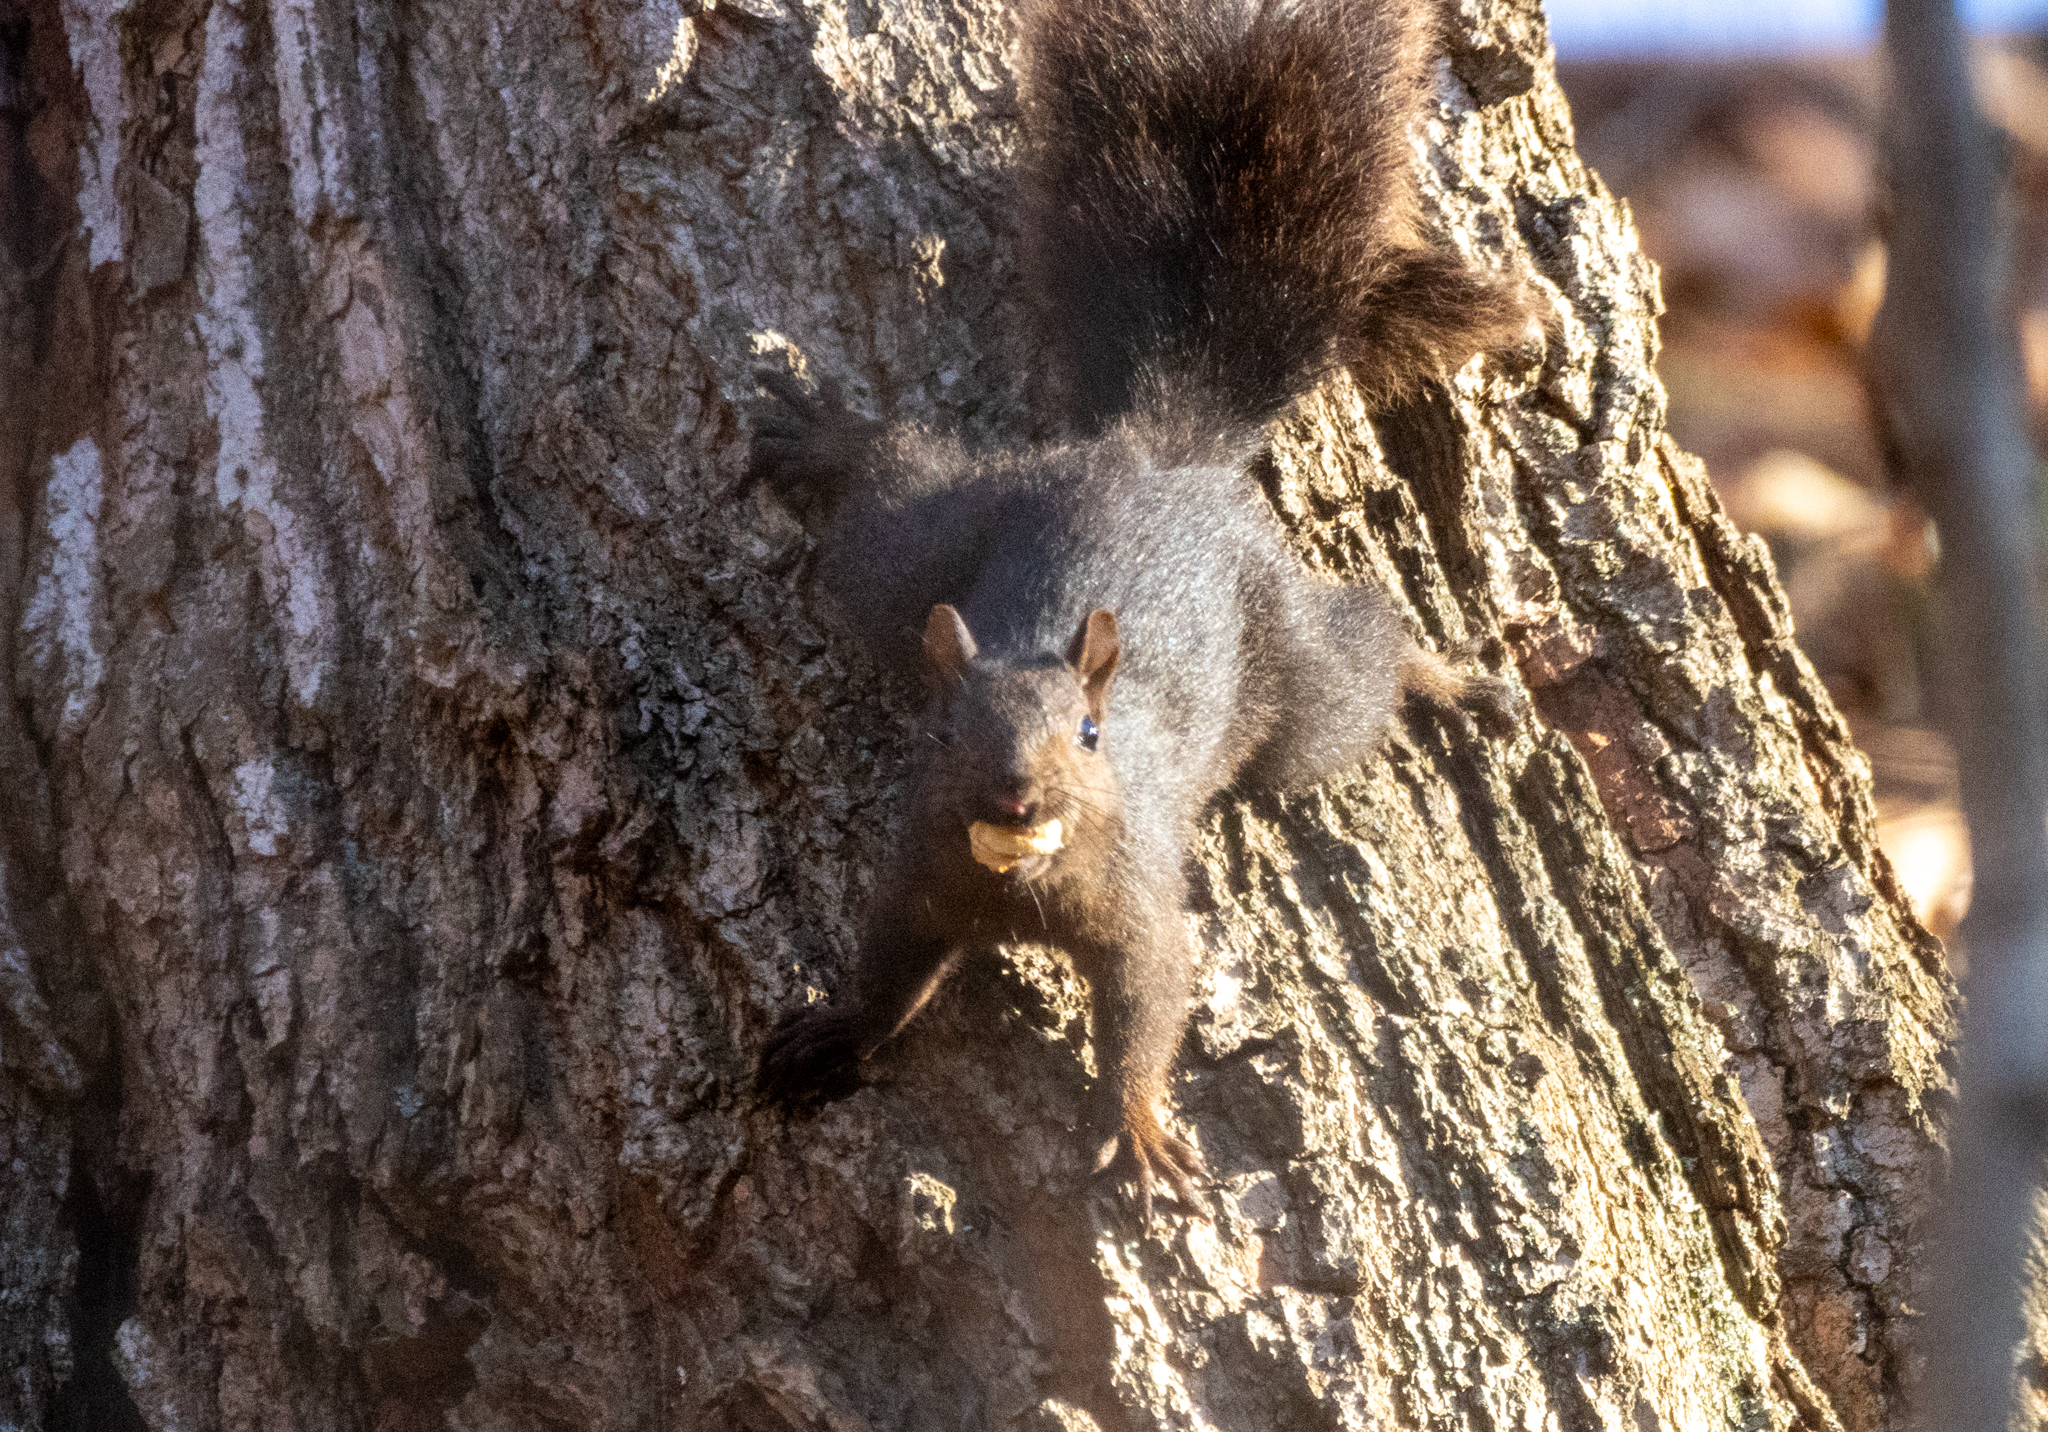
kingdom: Animalia
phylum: Chordata
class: Mammalia
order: Rodentia
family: Sciuridae
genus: Sciurus
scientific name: Sciurus carolinensis
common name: Eastern gray squirrel
